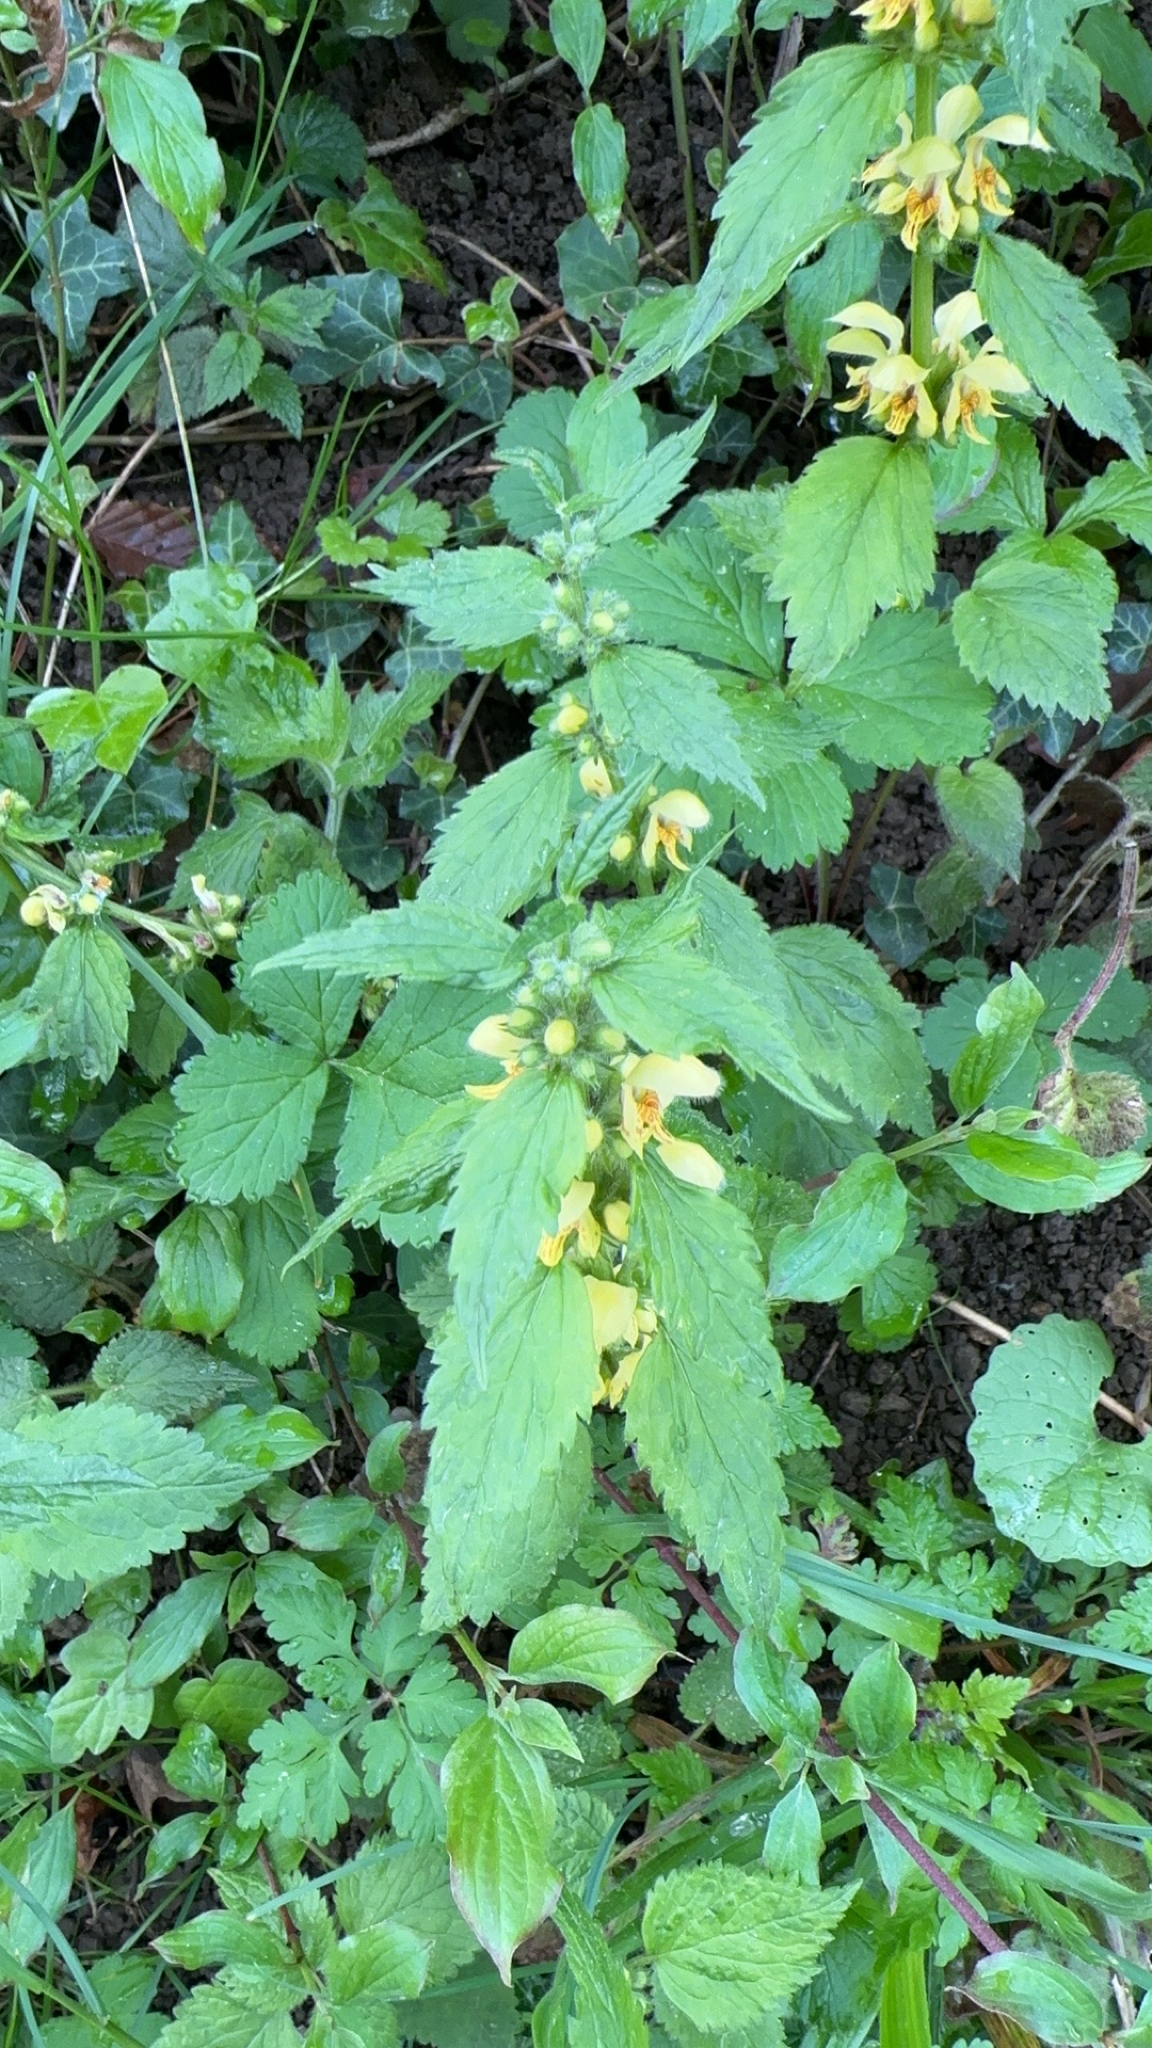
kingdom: Plantae
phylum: Tracheophyta
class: Magnoliopsida
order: Lamiales
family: Lamiaceae
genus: Lamium
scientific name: Lamium galeobdolon
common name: Yellow archangel
